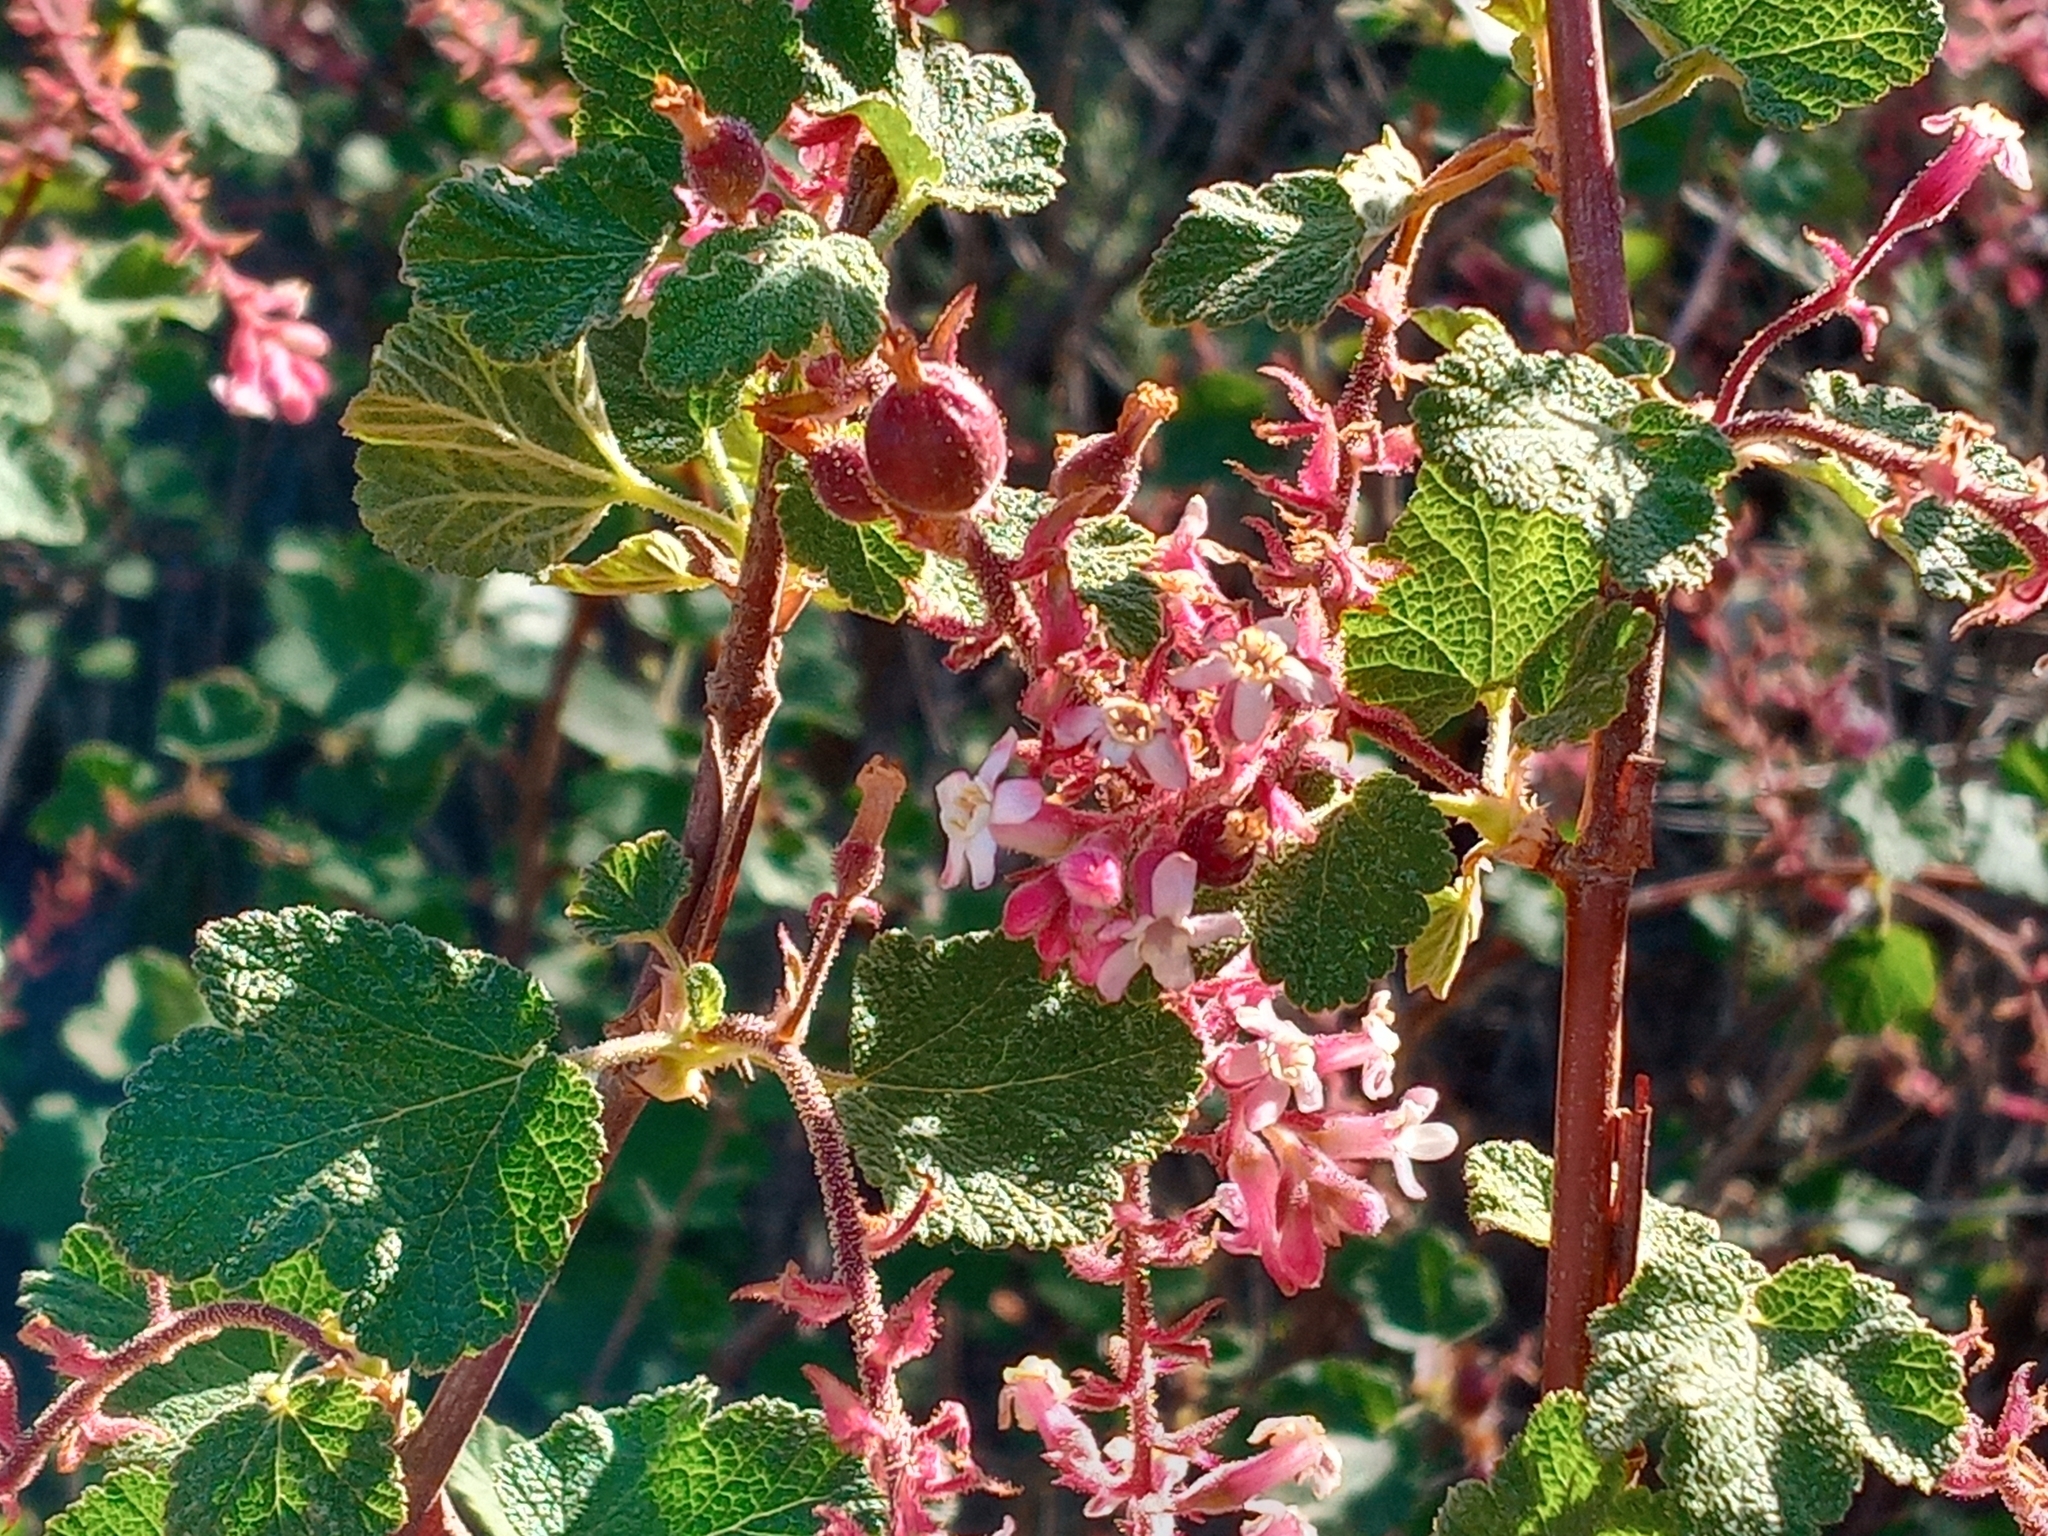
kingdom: Plantae
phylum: Tracheophyta
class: Magnoliopsida
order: Saxifragales
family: Grossulariaceae
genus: Ribes
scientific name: Ribes malvaceum
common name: Chaparral currant
